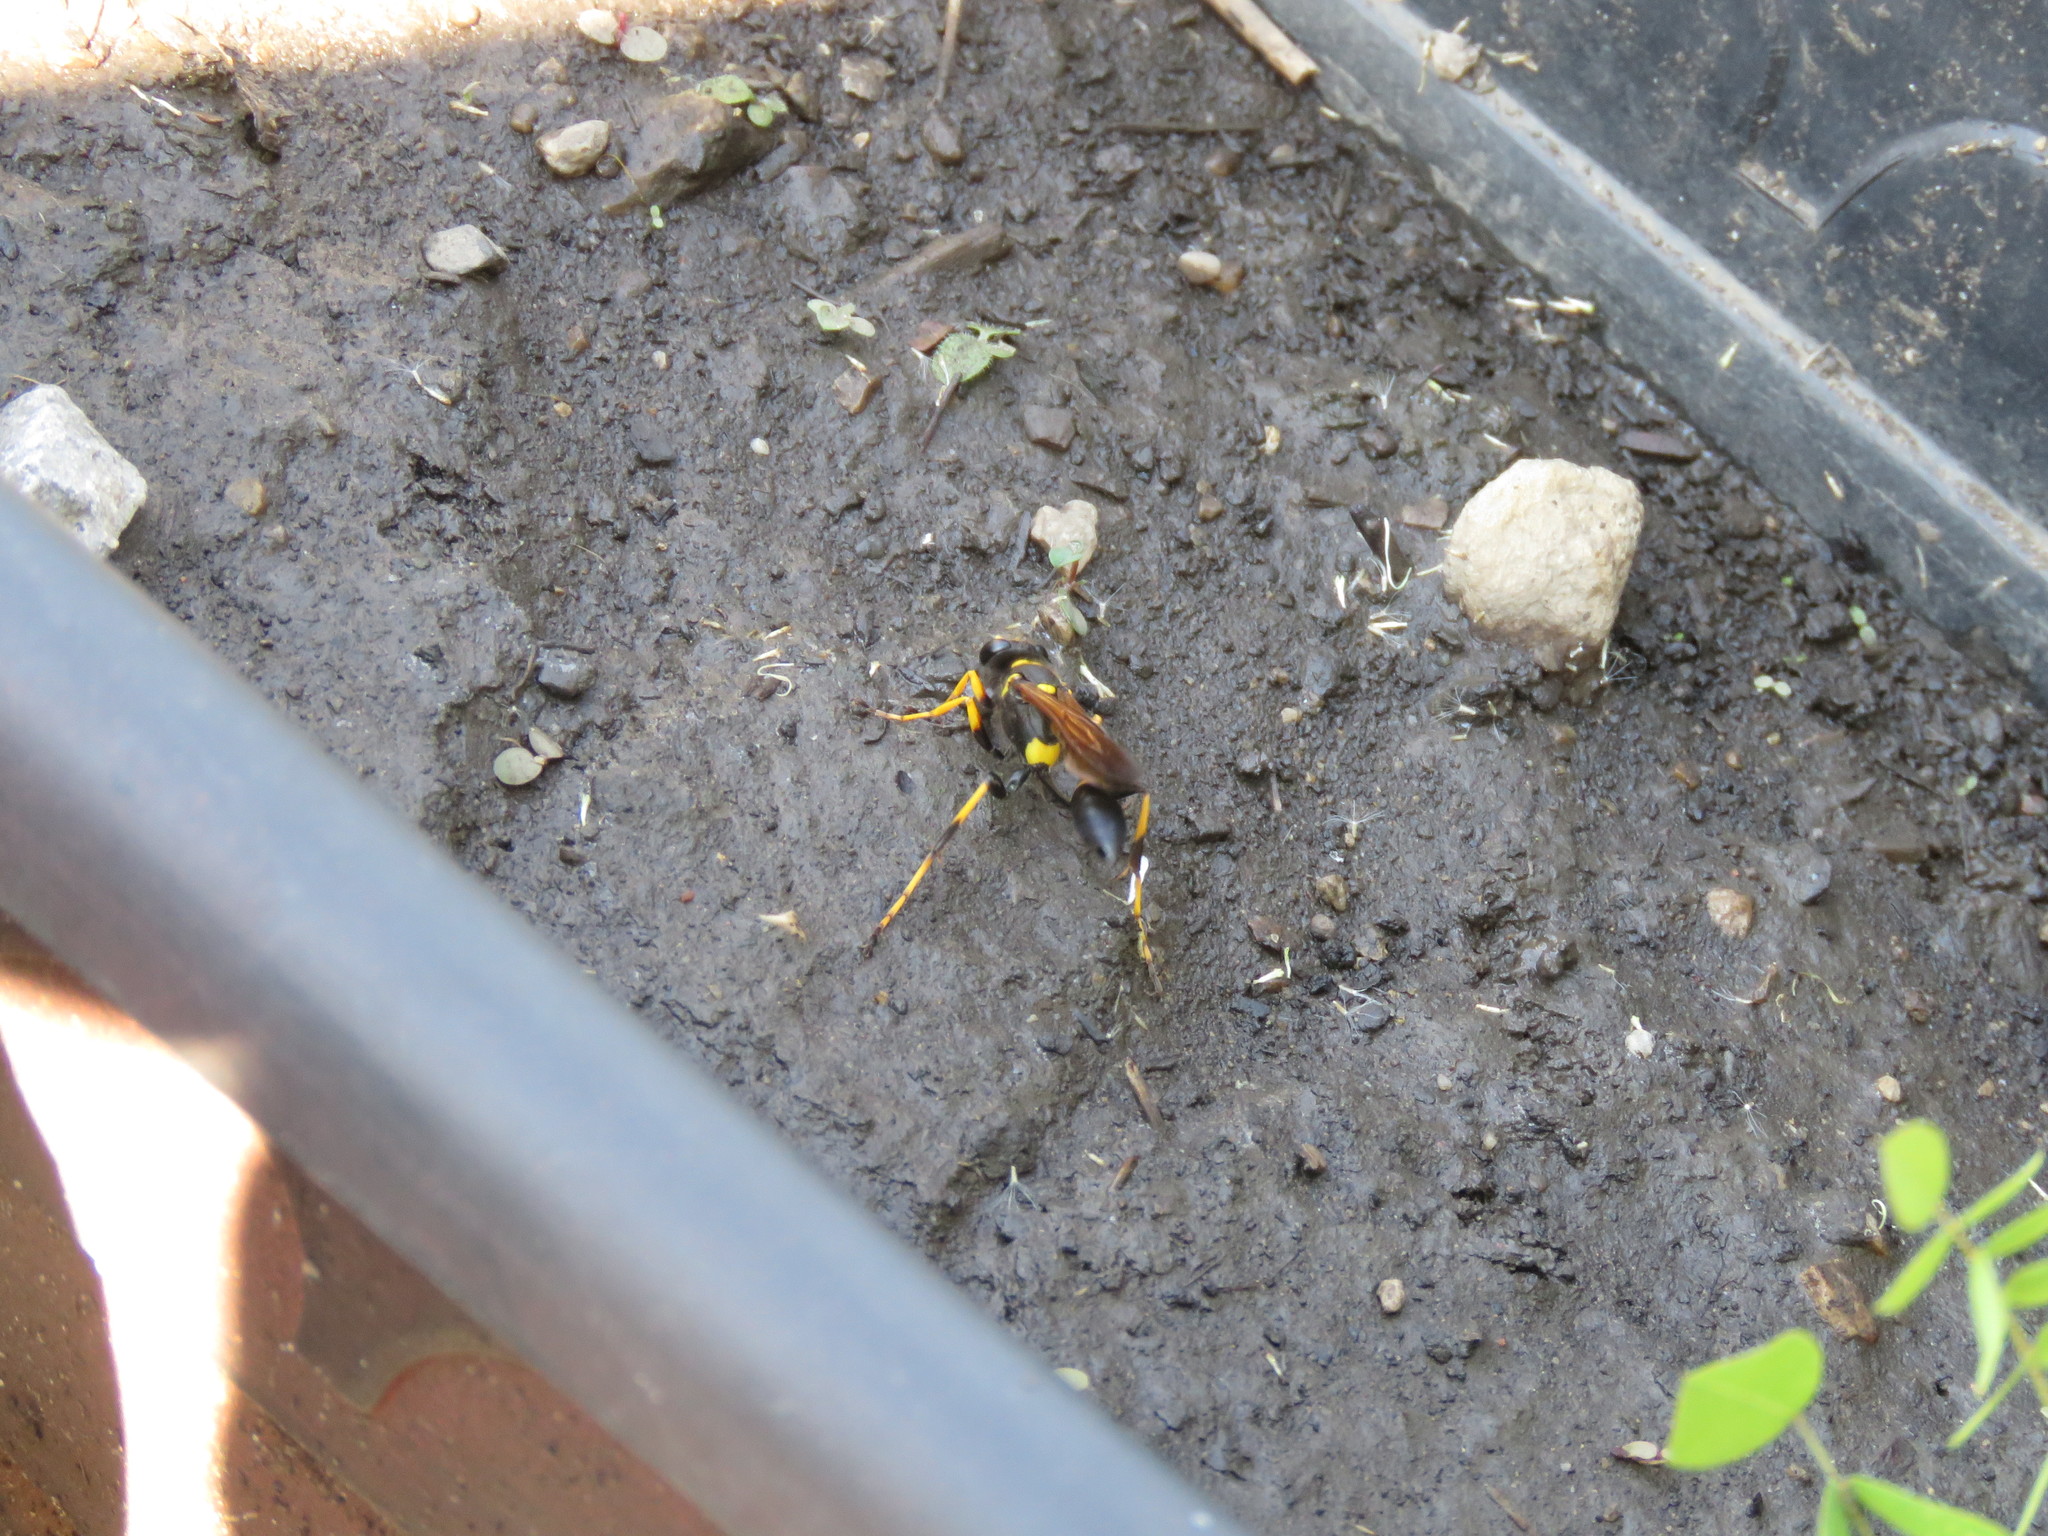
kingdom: Animalia
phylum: Arthropoda
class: Insecta
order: Hymenoptera
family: Sphecidae
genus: Sceliphron
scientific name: Sceliphron caementarium
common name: Mud dauber
